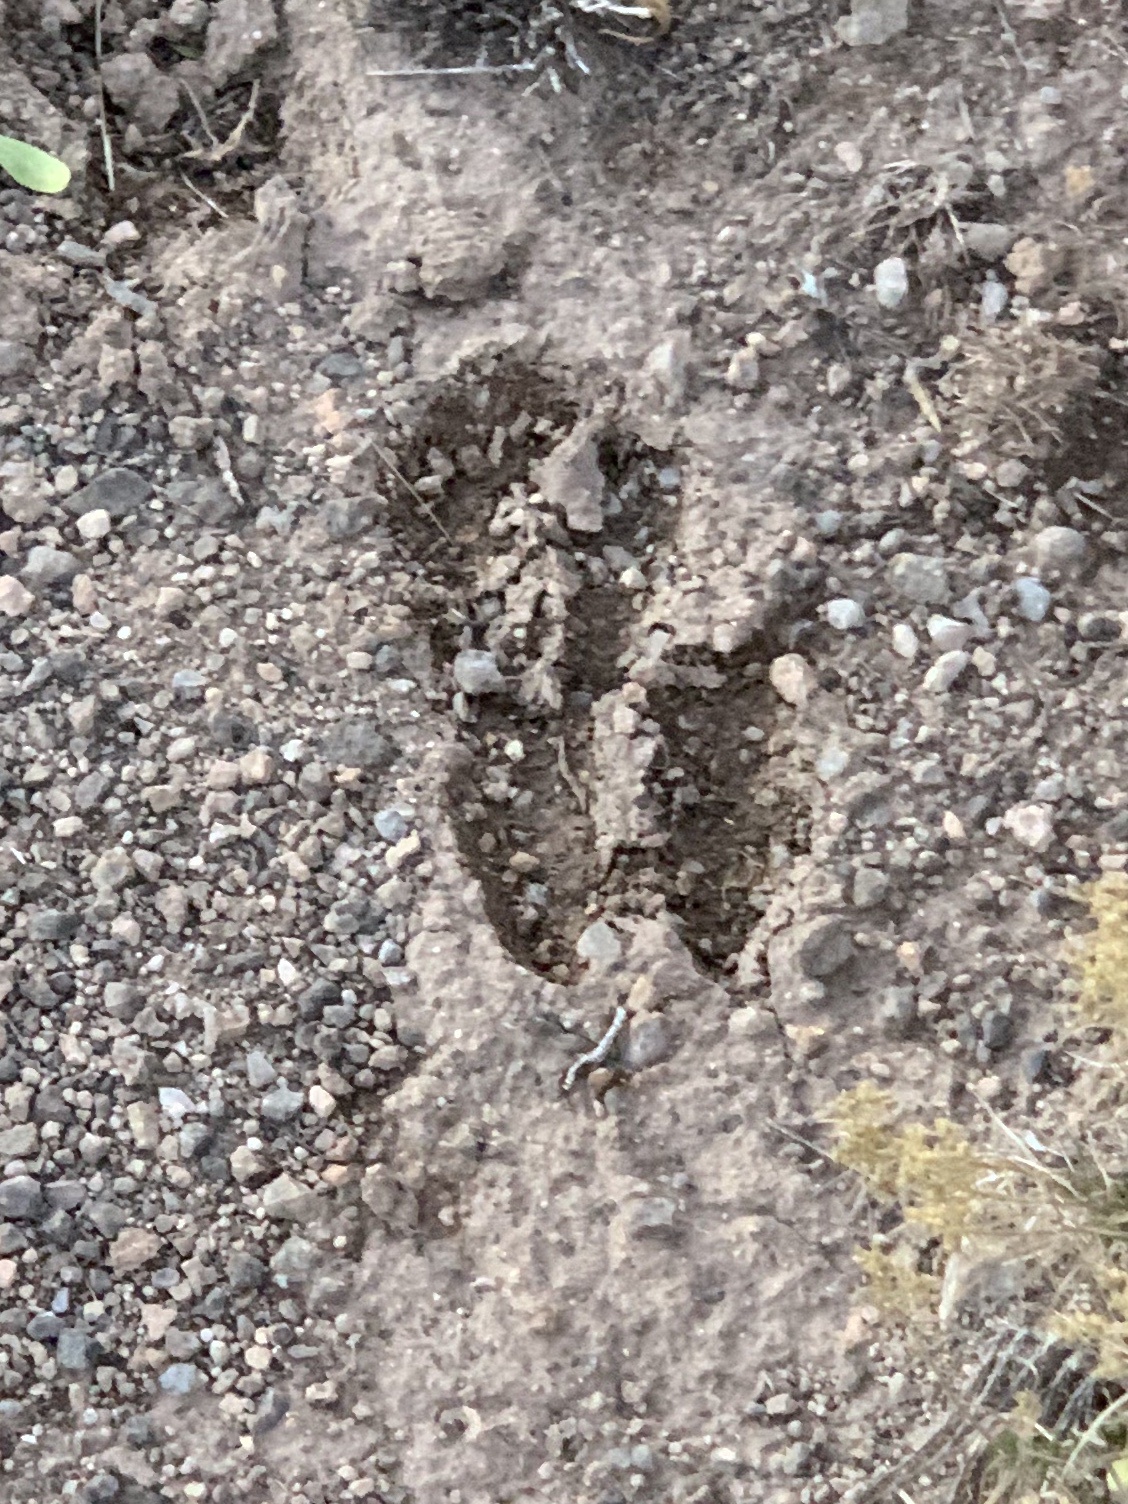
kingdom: Animalia
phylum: Chordata
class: Mammalia
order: Artiodactyla
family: Cervidae
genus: Odocoileus
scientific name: Odocoileus hemionus
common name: Mule deer
